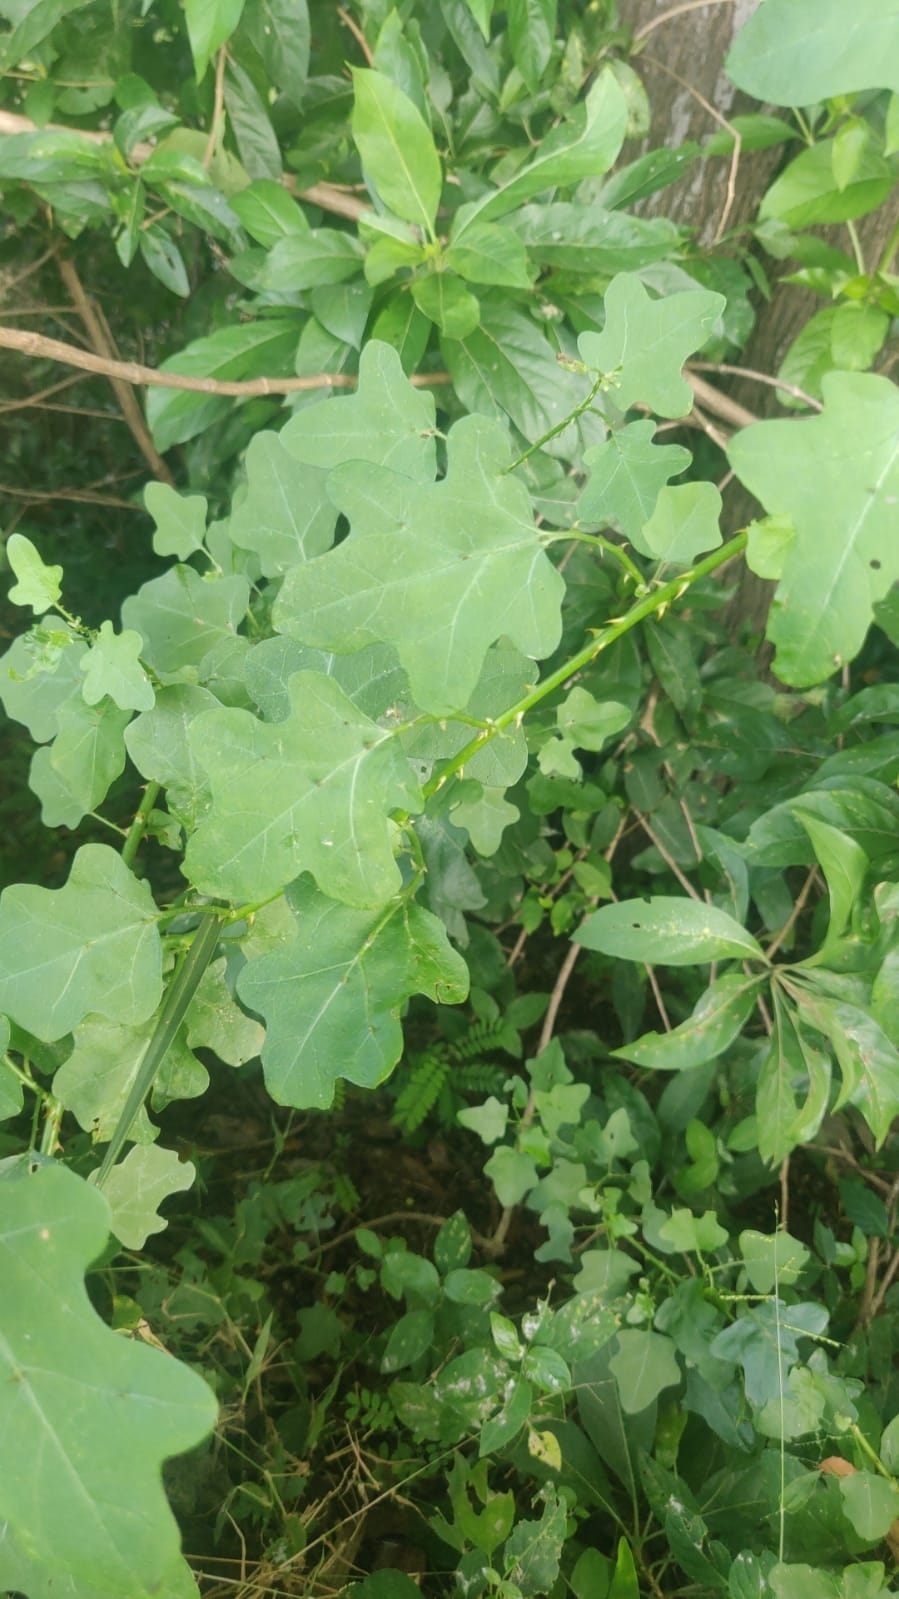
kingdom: Plantae
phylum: Tracheophyta
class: Magnoliopsida
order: Solanales
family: Solanaceae
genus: Solanum
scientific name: Solanum trilobatum
